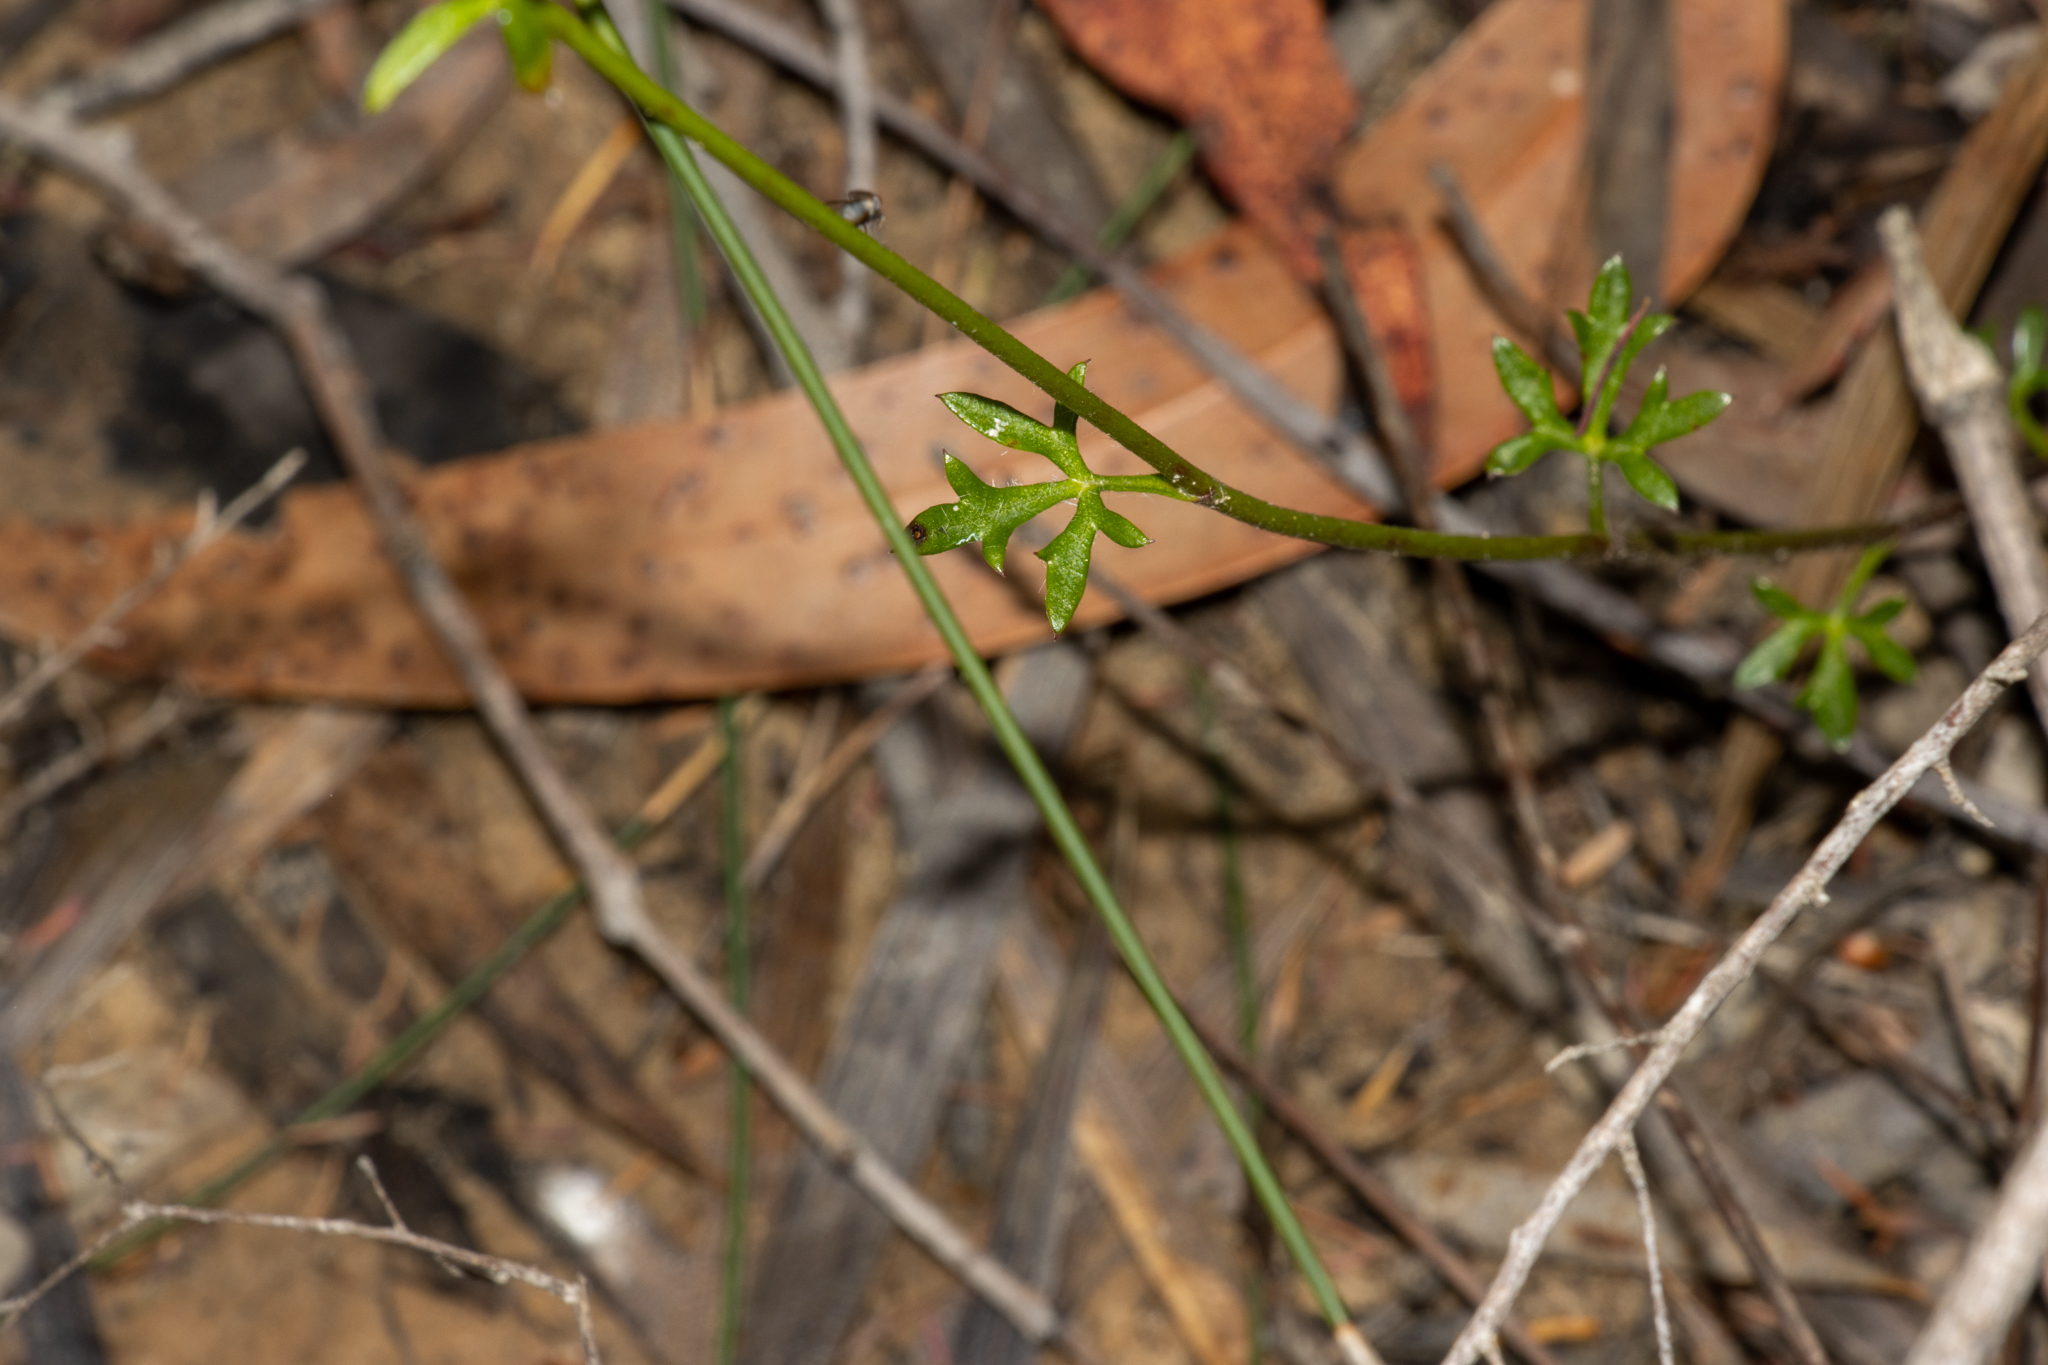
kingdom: Plantae
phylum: Tracheophyta
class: Magnoliopsida
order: Apiales
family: Apiaceae
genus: Actinotus
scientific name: Actinotus minor
